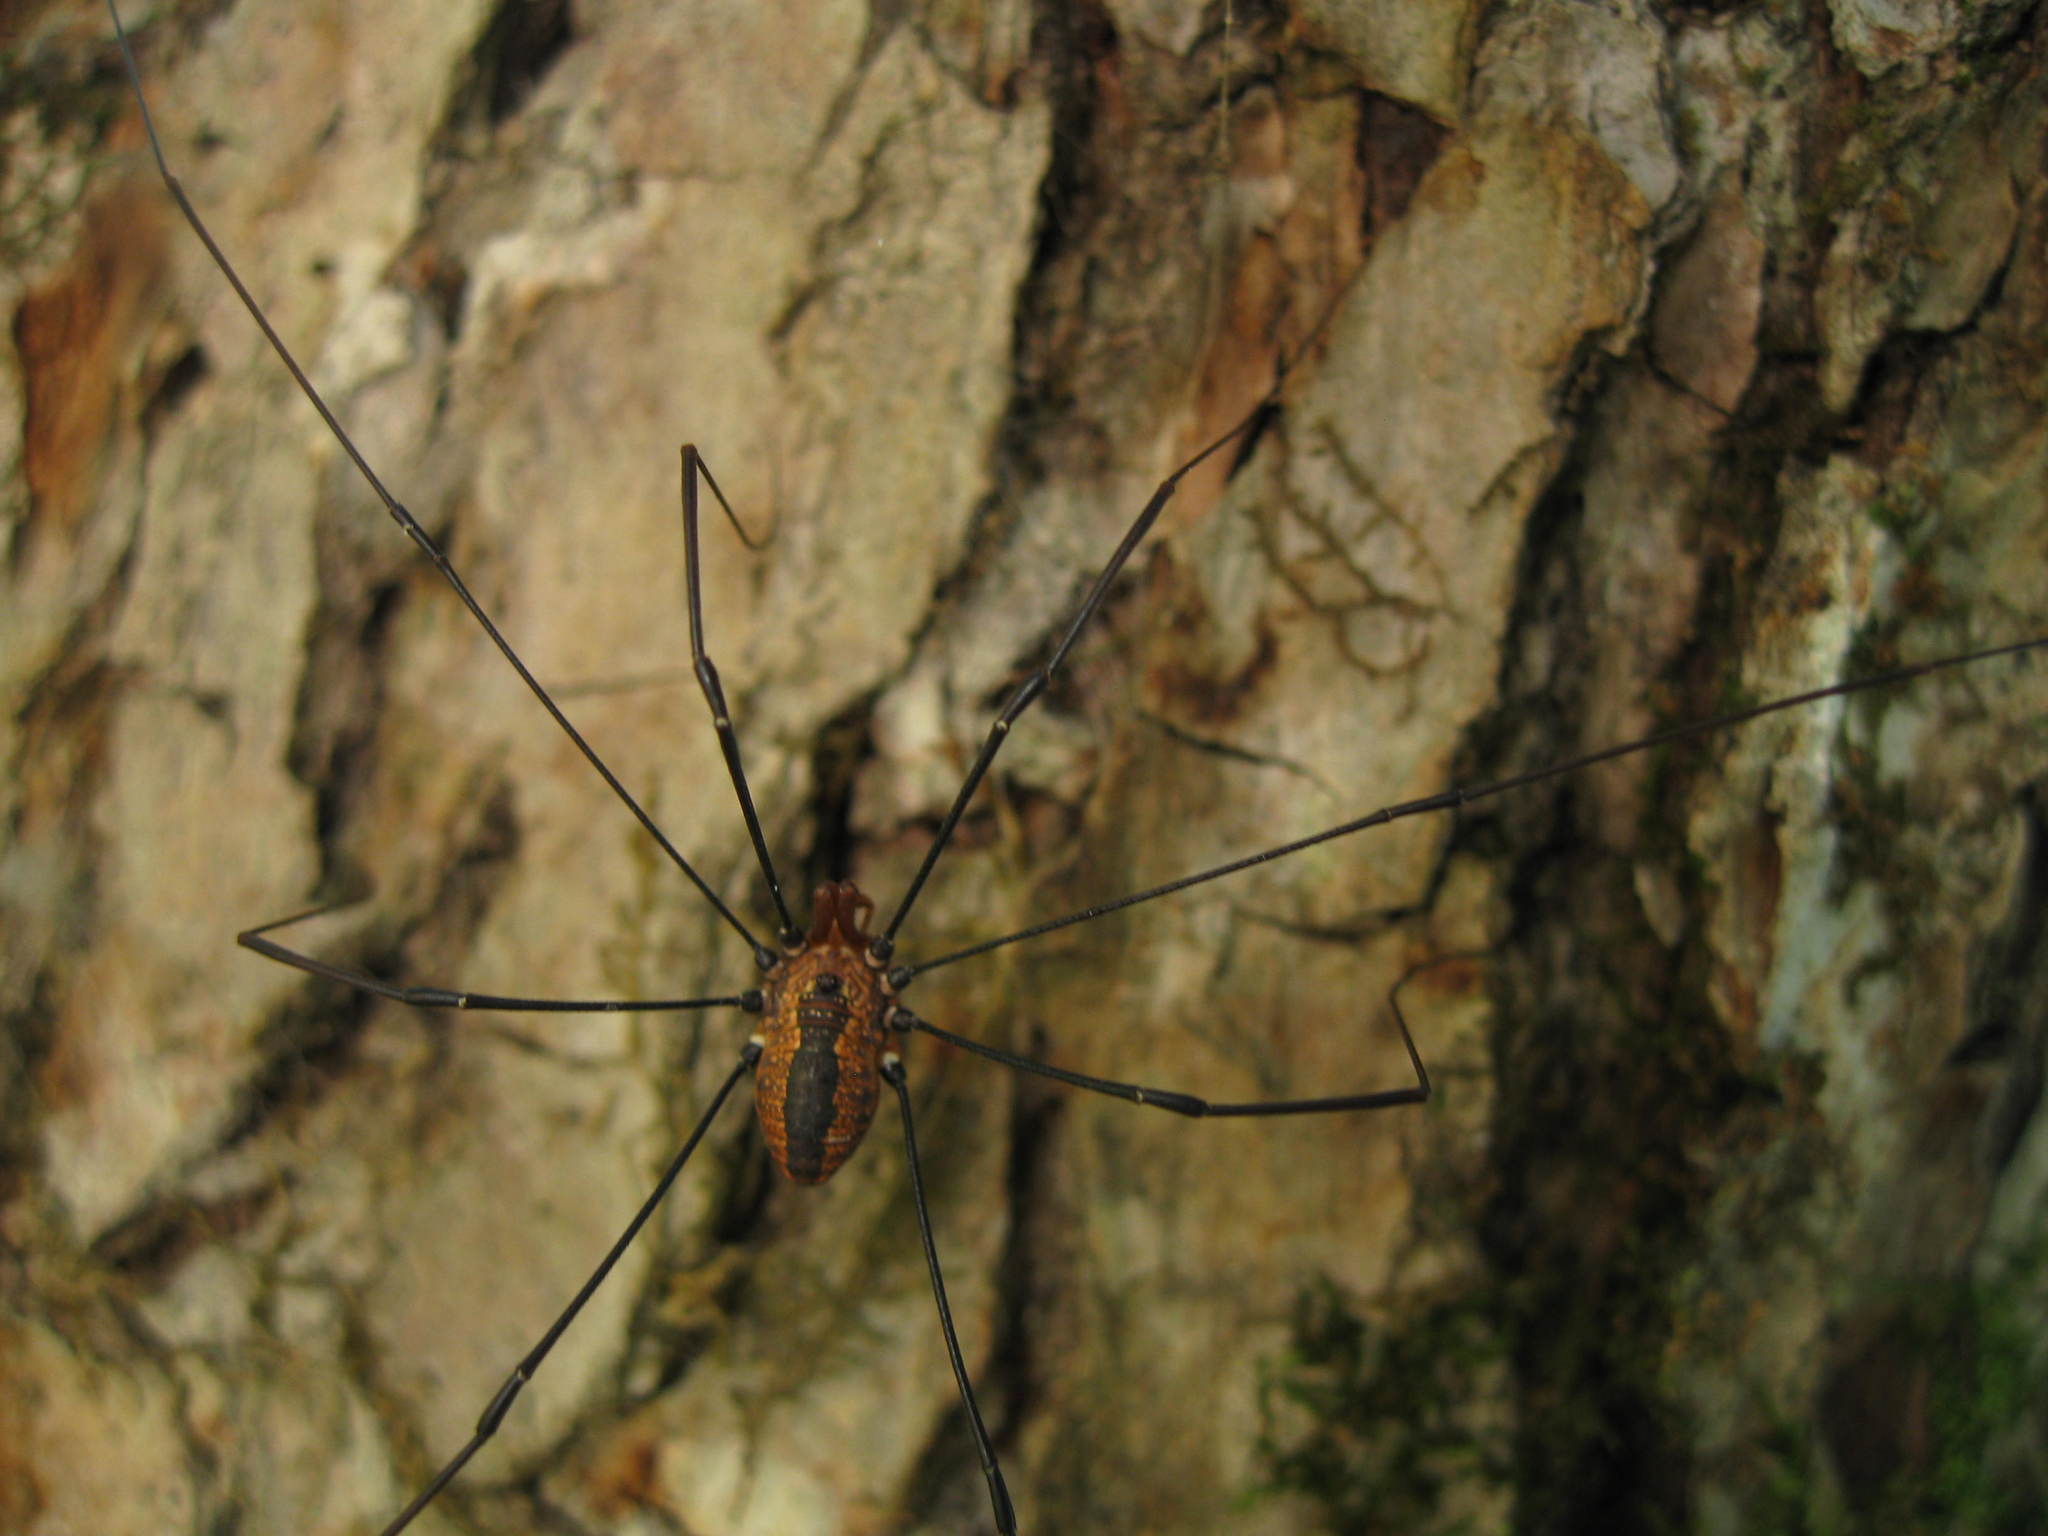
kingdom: Animalia
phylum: Arthropoda
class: Arachnida
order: Opiliones
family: Sclerosomatidae
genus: Leiobunum
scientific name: Leiobunum vittatum
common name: Eastern harvestman
